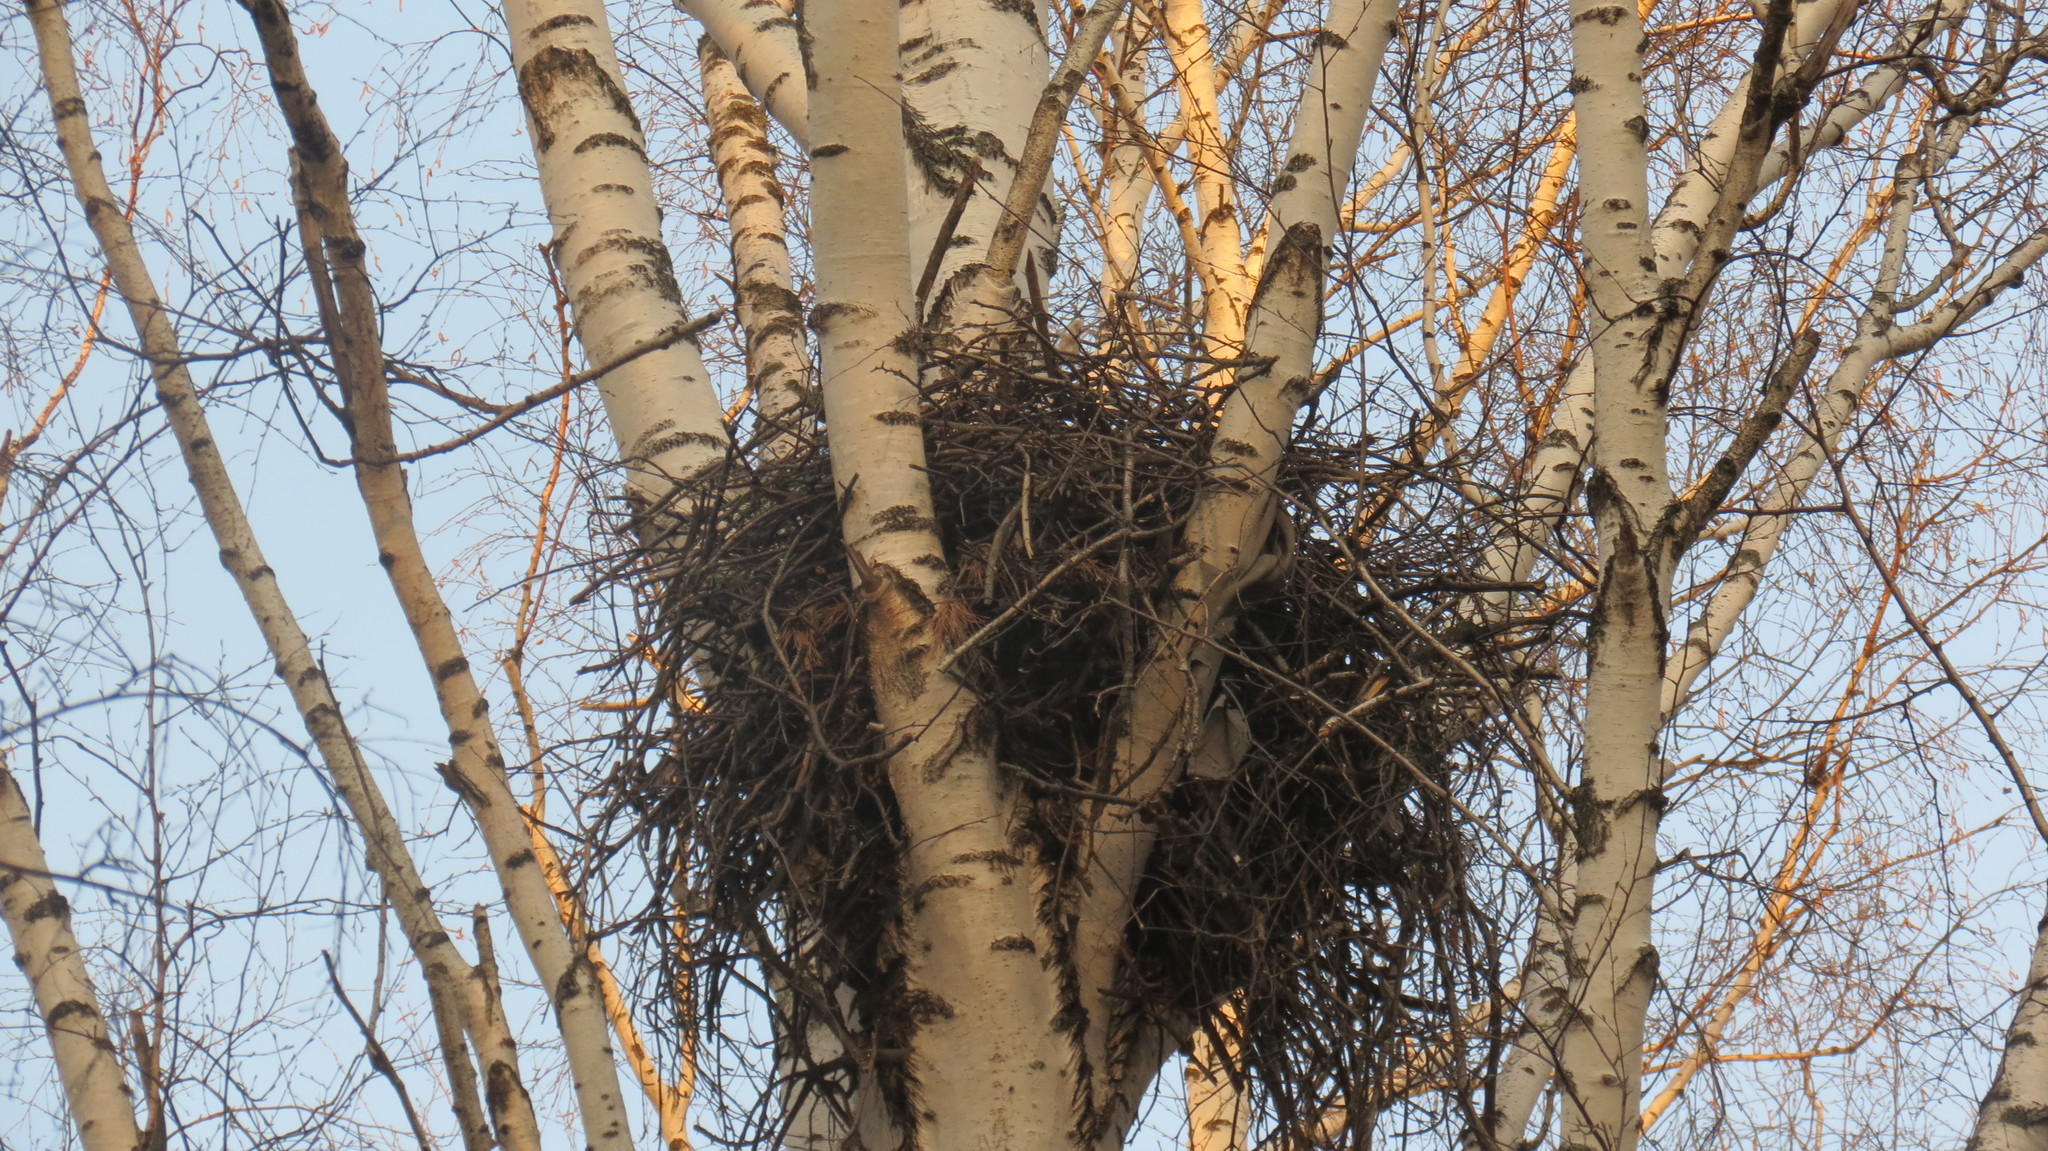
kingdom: Animalia
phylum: Chordata
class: Aves
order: Accipitriformes
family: Accipitridae
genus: Milvus
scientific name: Milvus migrans
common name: Black kite
